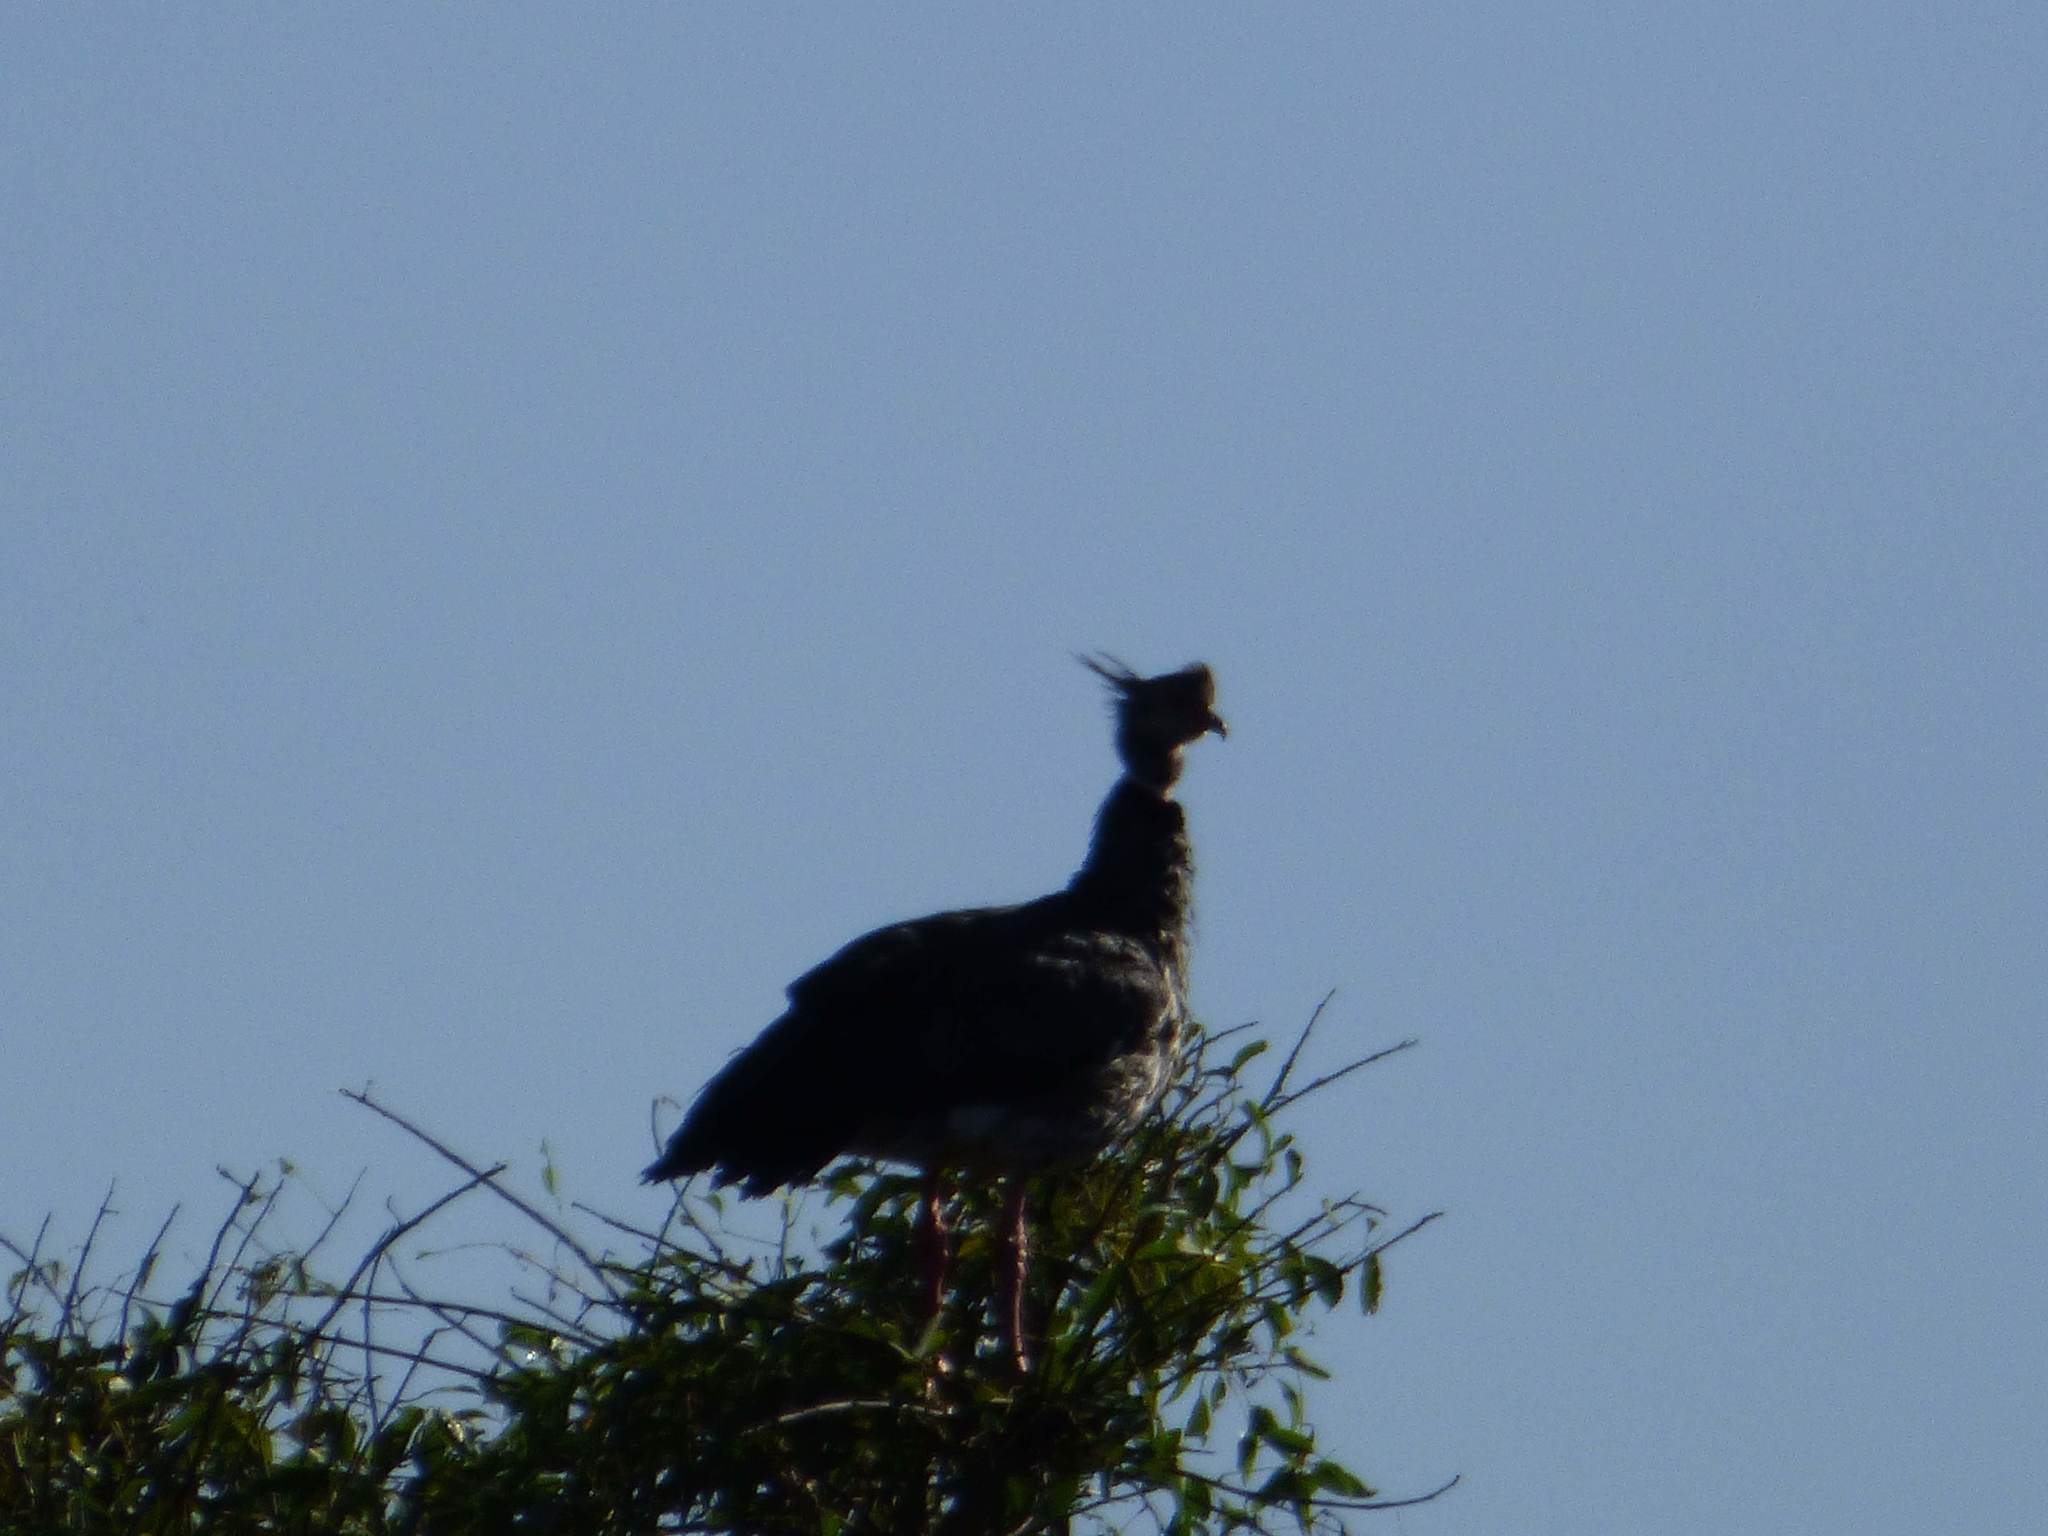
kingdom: Animalia
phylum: Chordata
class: Aves
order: Anseriformes
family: Anhimidae
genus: Chauna
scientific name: Chauna torquata
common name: Southern screamer
